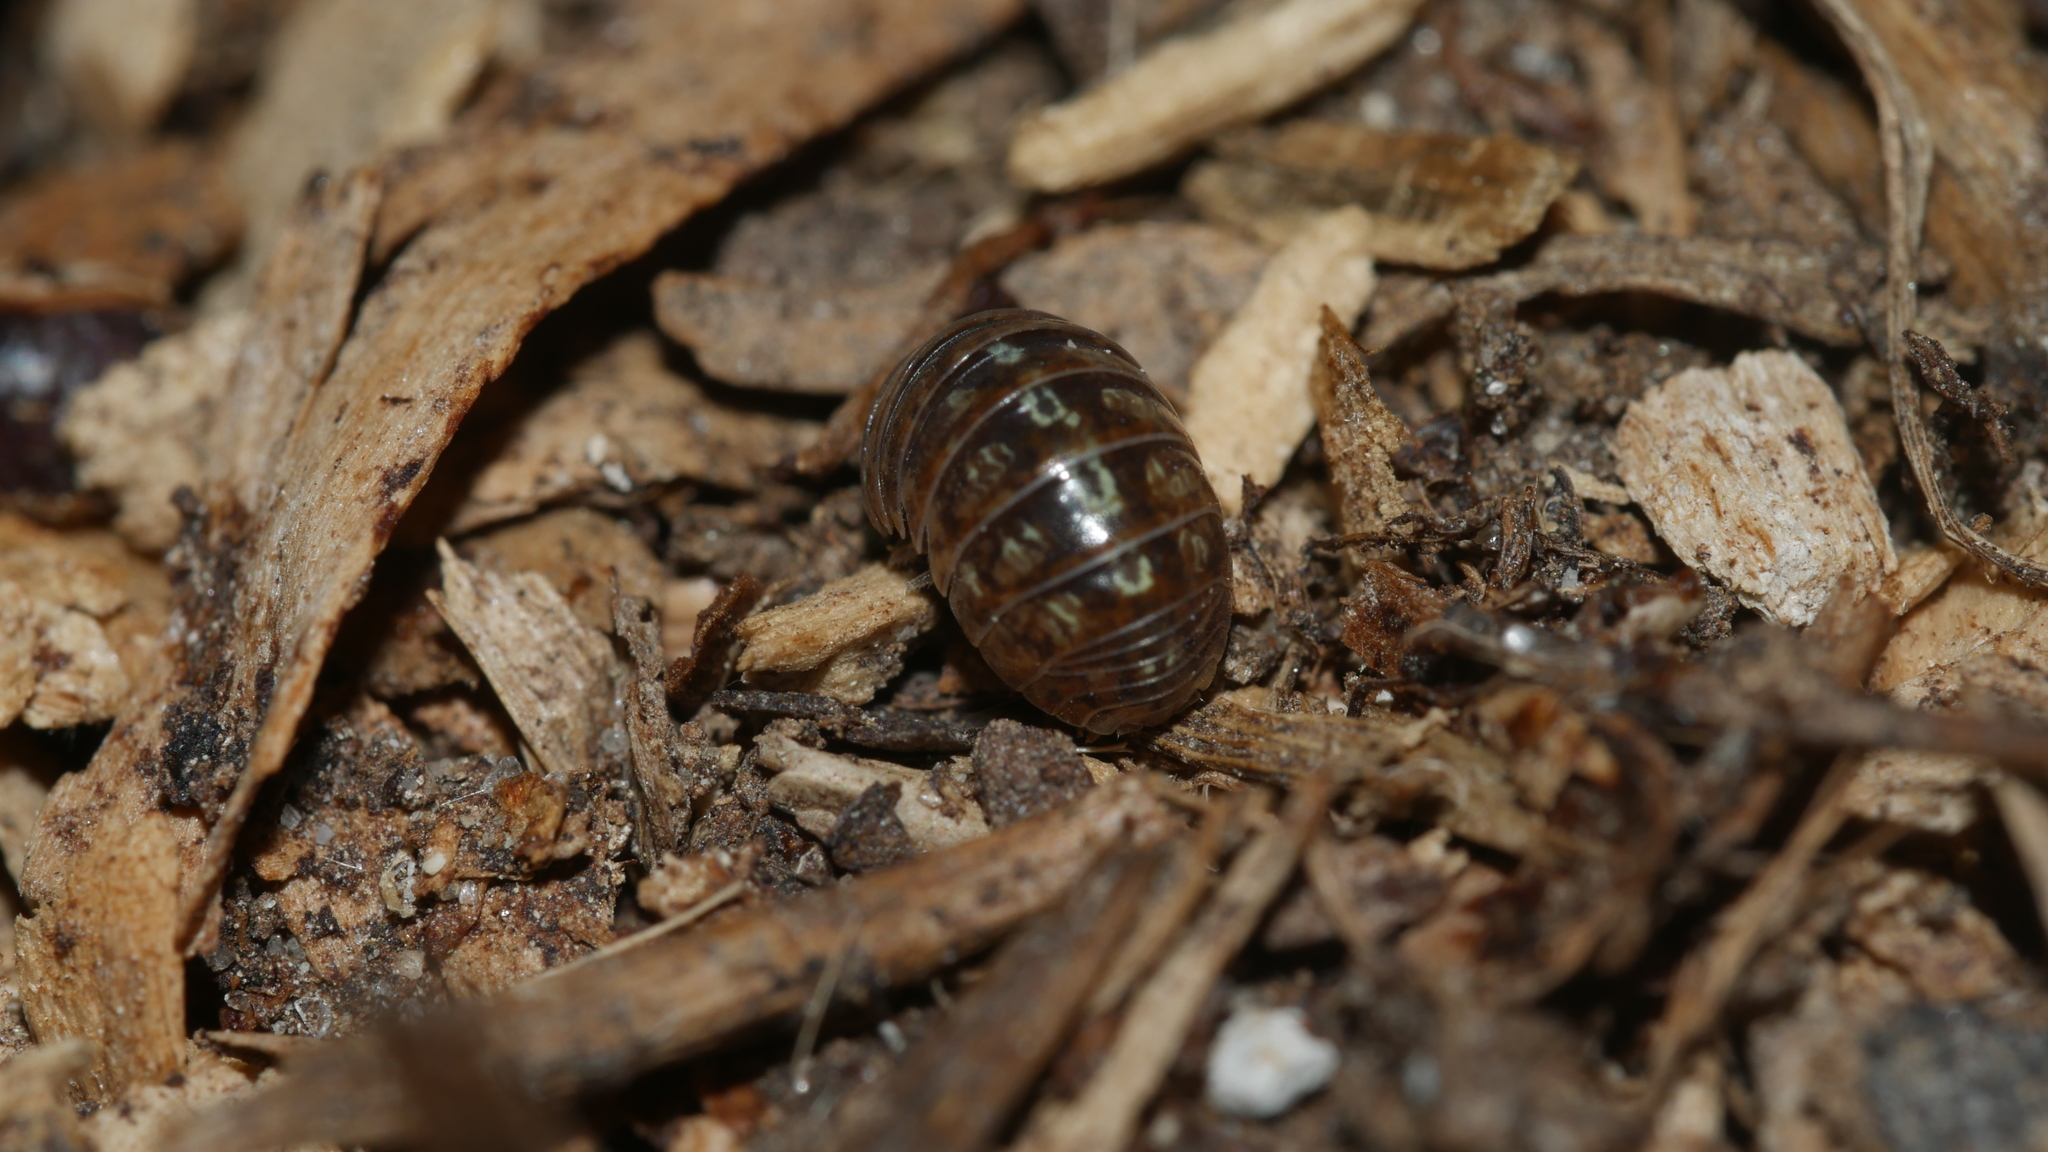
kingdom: Animalia
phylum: Arthropoda
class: Malacostraca
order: Isopoda
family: Armadillidiidae
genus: Armadillidium
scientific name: Armadillidium vulgare
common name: Common pill woodlouse
